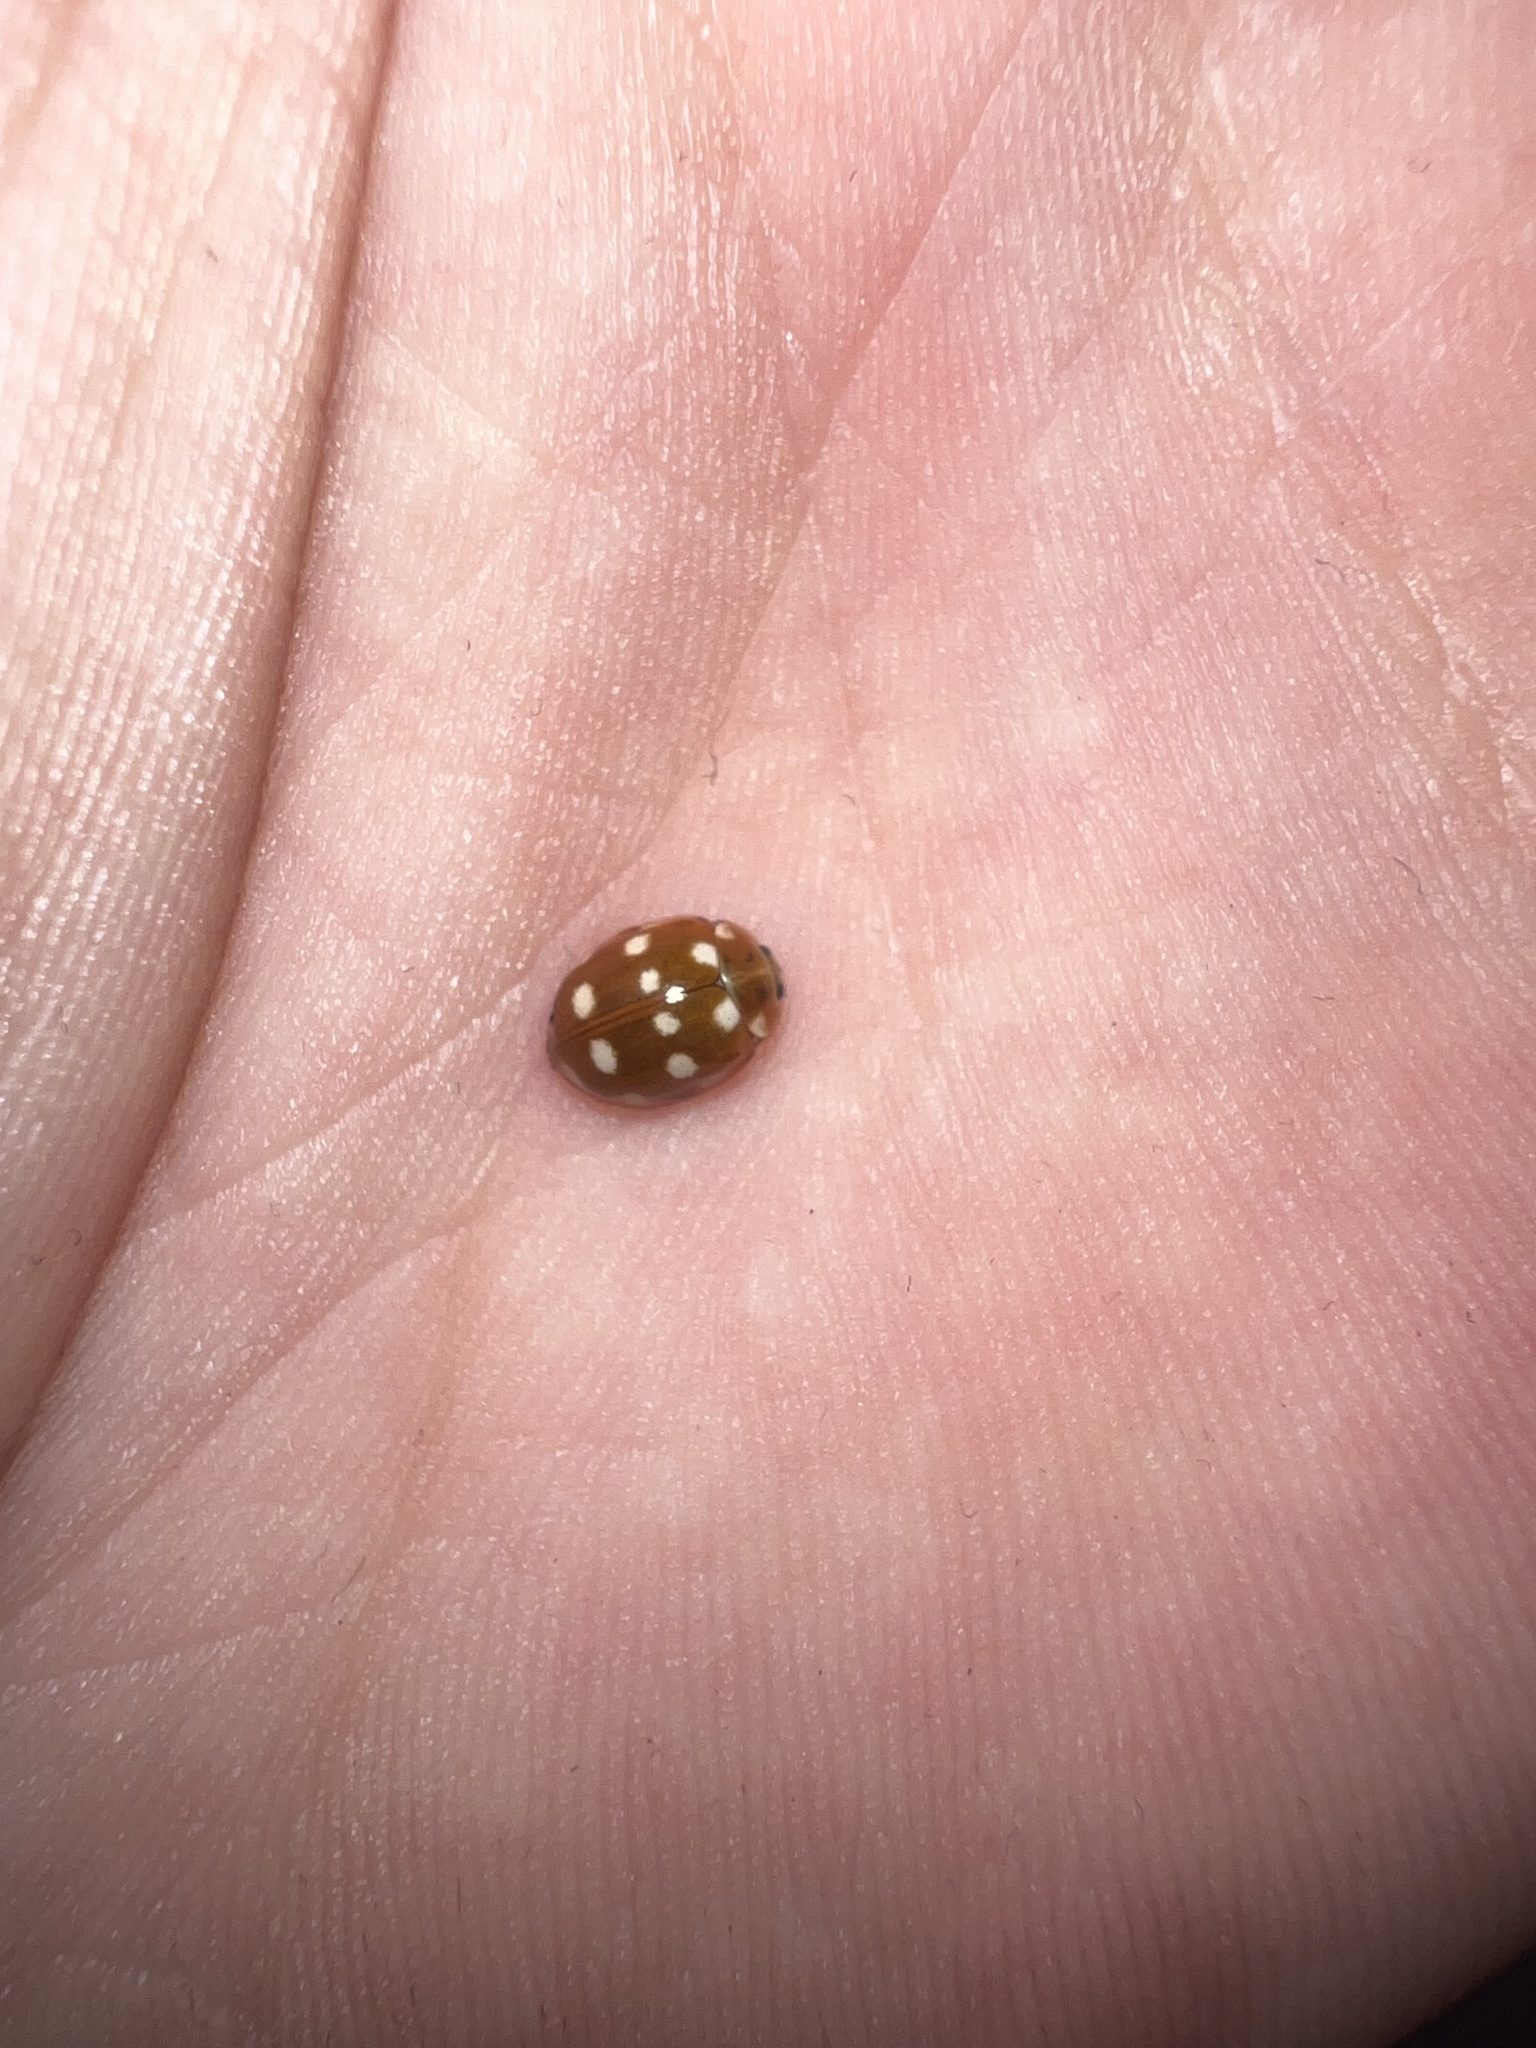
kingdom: Animalia
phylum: Arthropoda
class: Insecta
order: Coleoptera
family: Coccinellidae
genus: Calvia
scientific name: Calvia quatuordecimguttata
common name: Cream-spot ladybird
